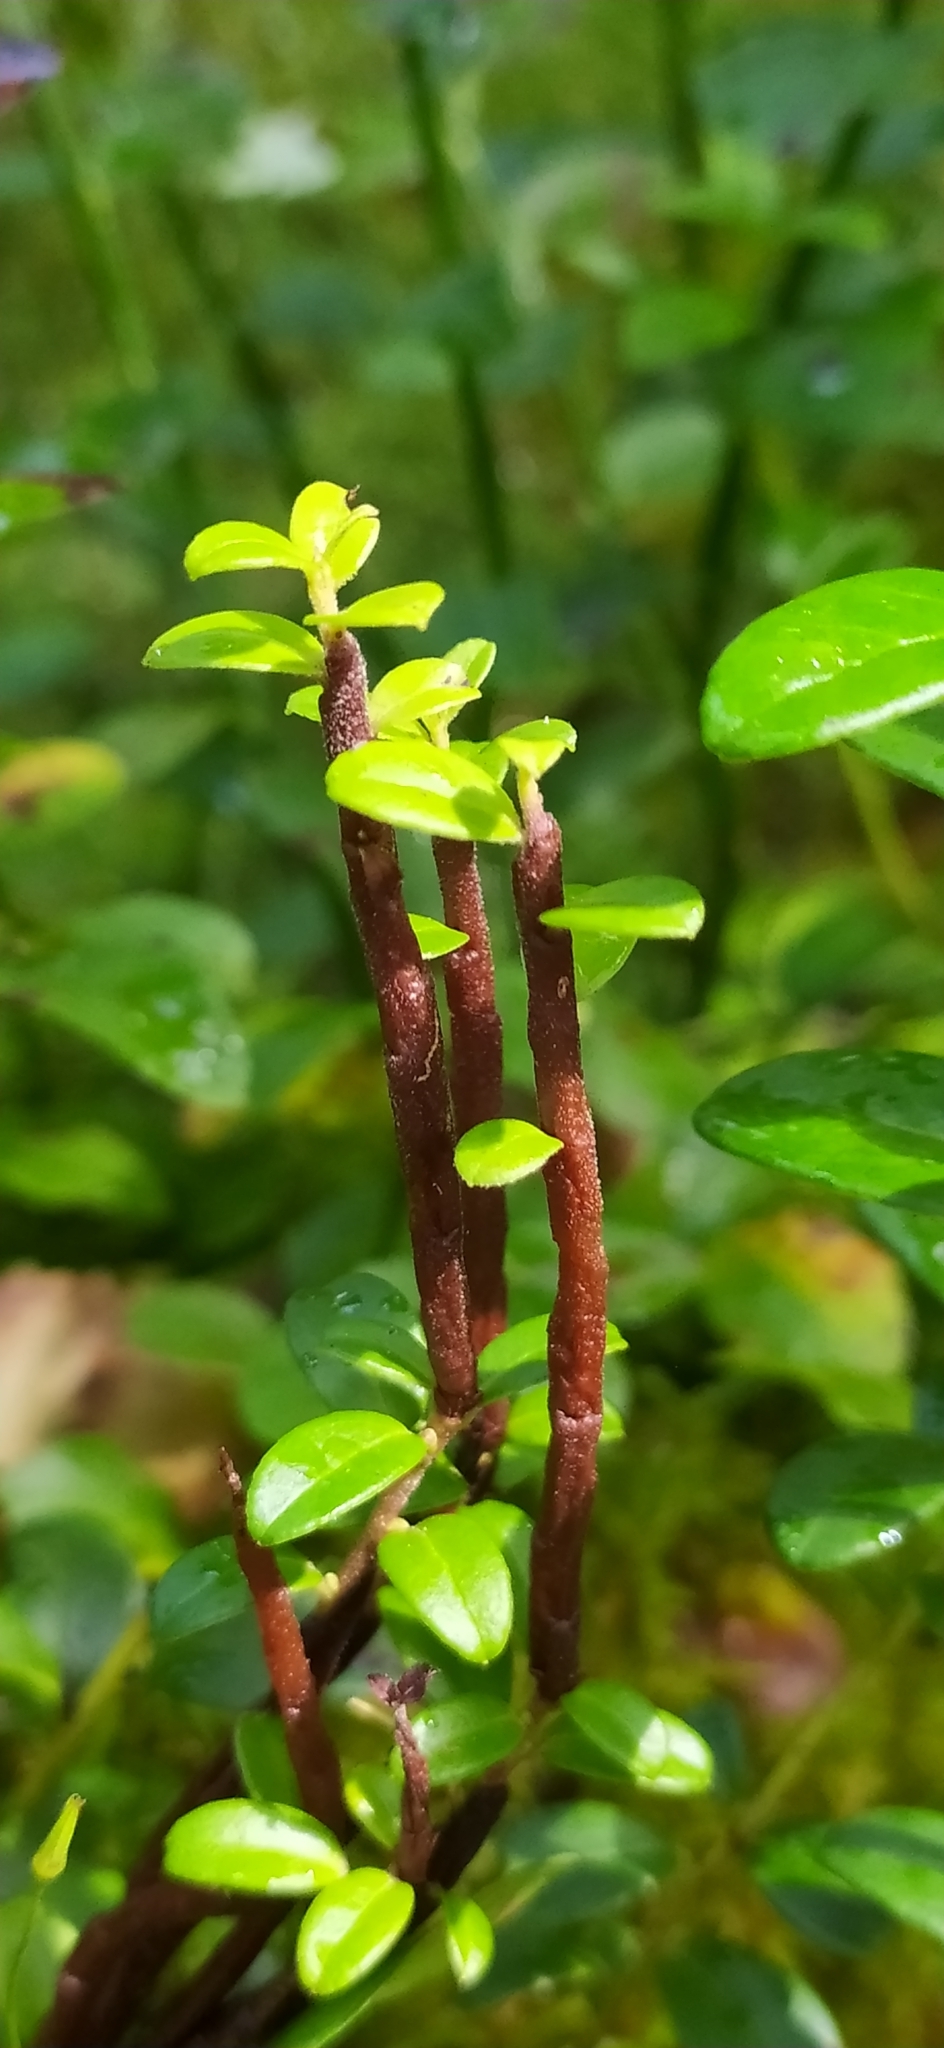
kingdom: Fungi
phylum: Basidiomycota
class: Pucciniomycetes
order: Pucciniales
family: Pucciniastraceae
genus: Calyptospora
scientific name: Calyptospora columnaris
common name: Huckleberry broom rust fungus
